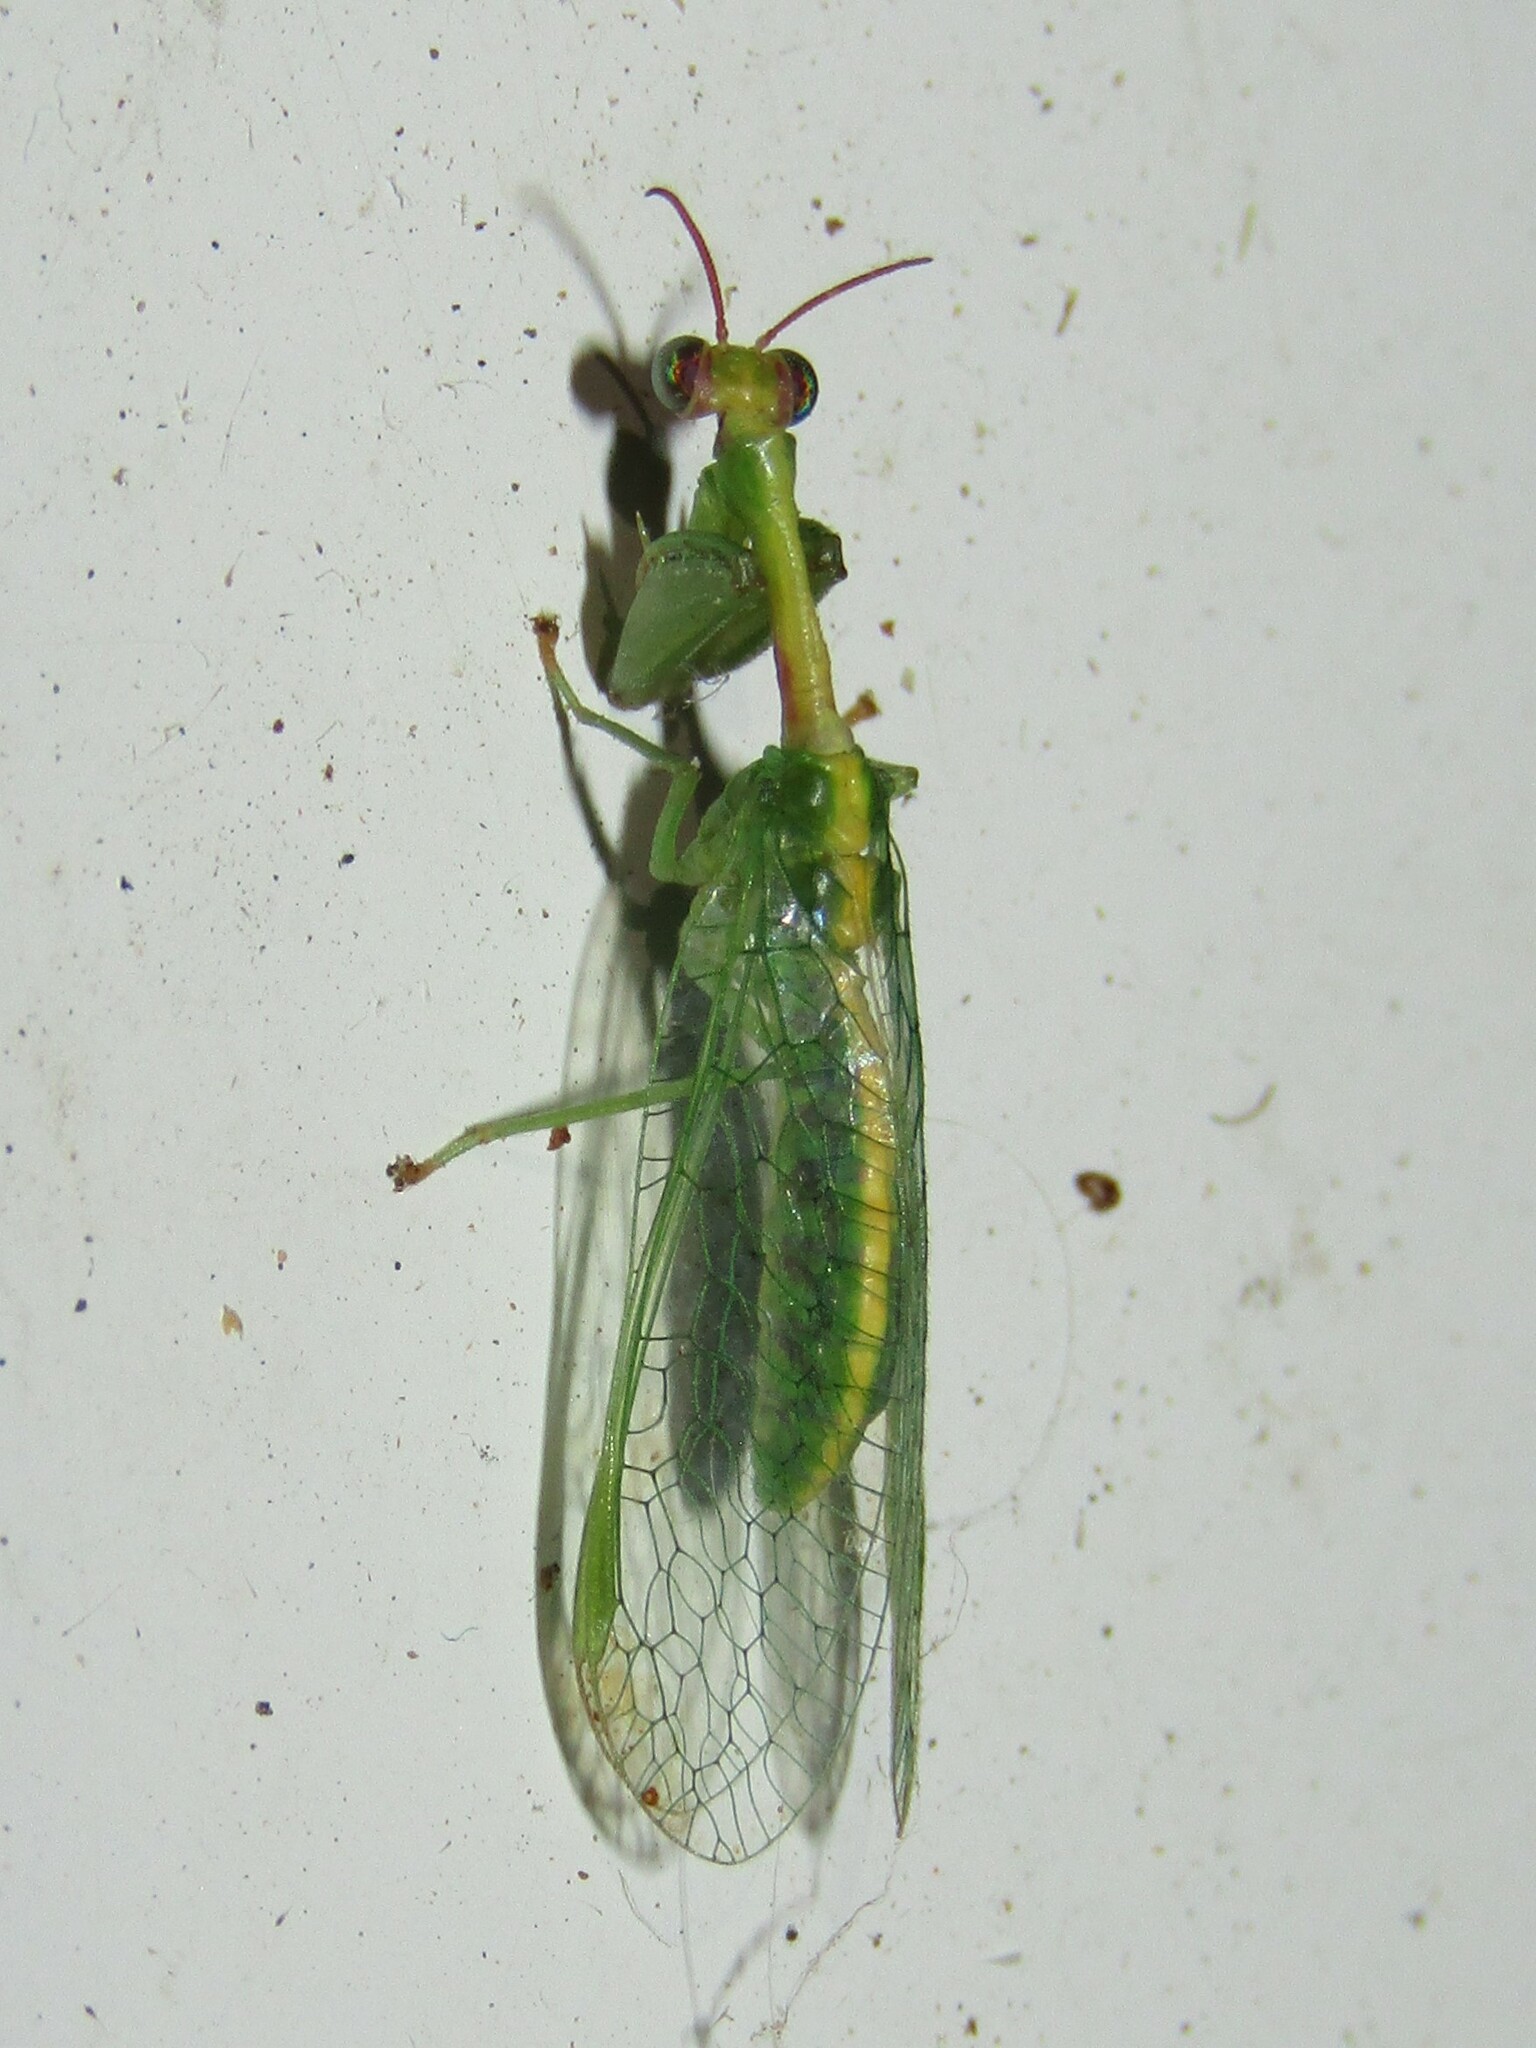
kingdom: Animalia
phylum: Arthropoda
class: Insecta
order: Neuroptera
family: Mantispidae
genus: Zeugomantispa
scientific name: Zeugomantispa minuta
